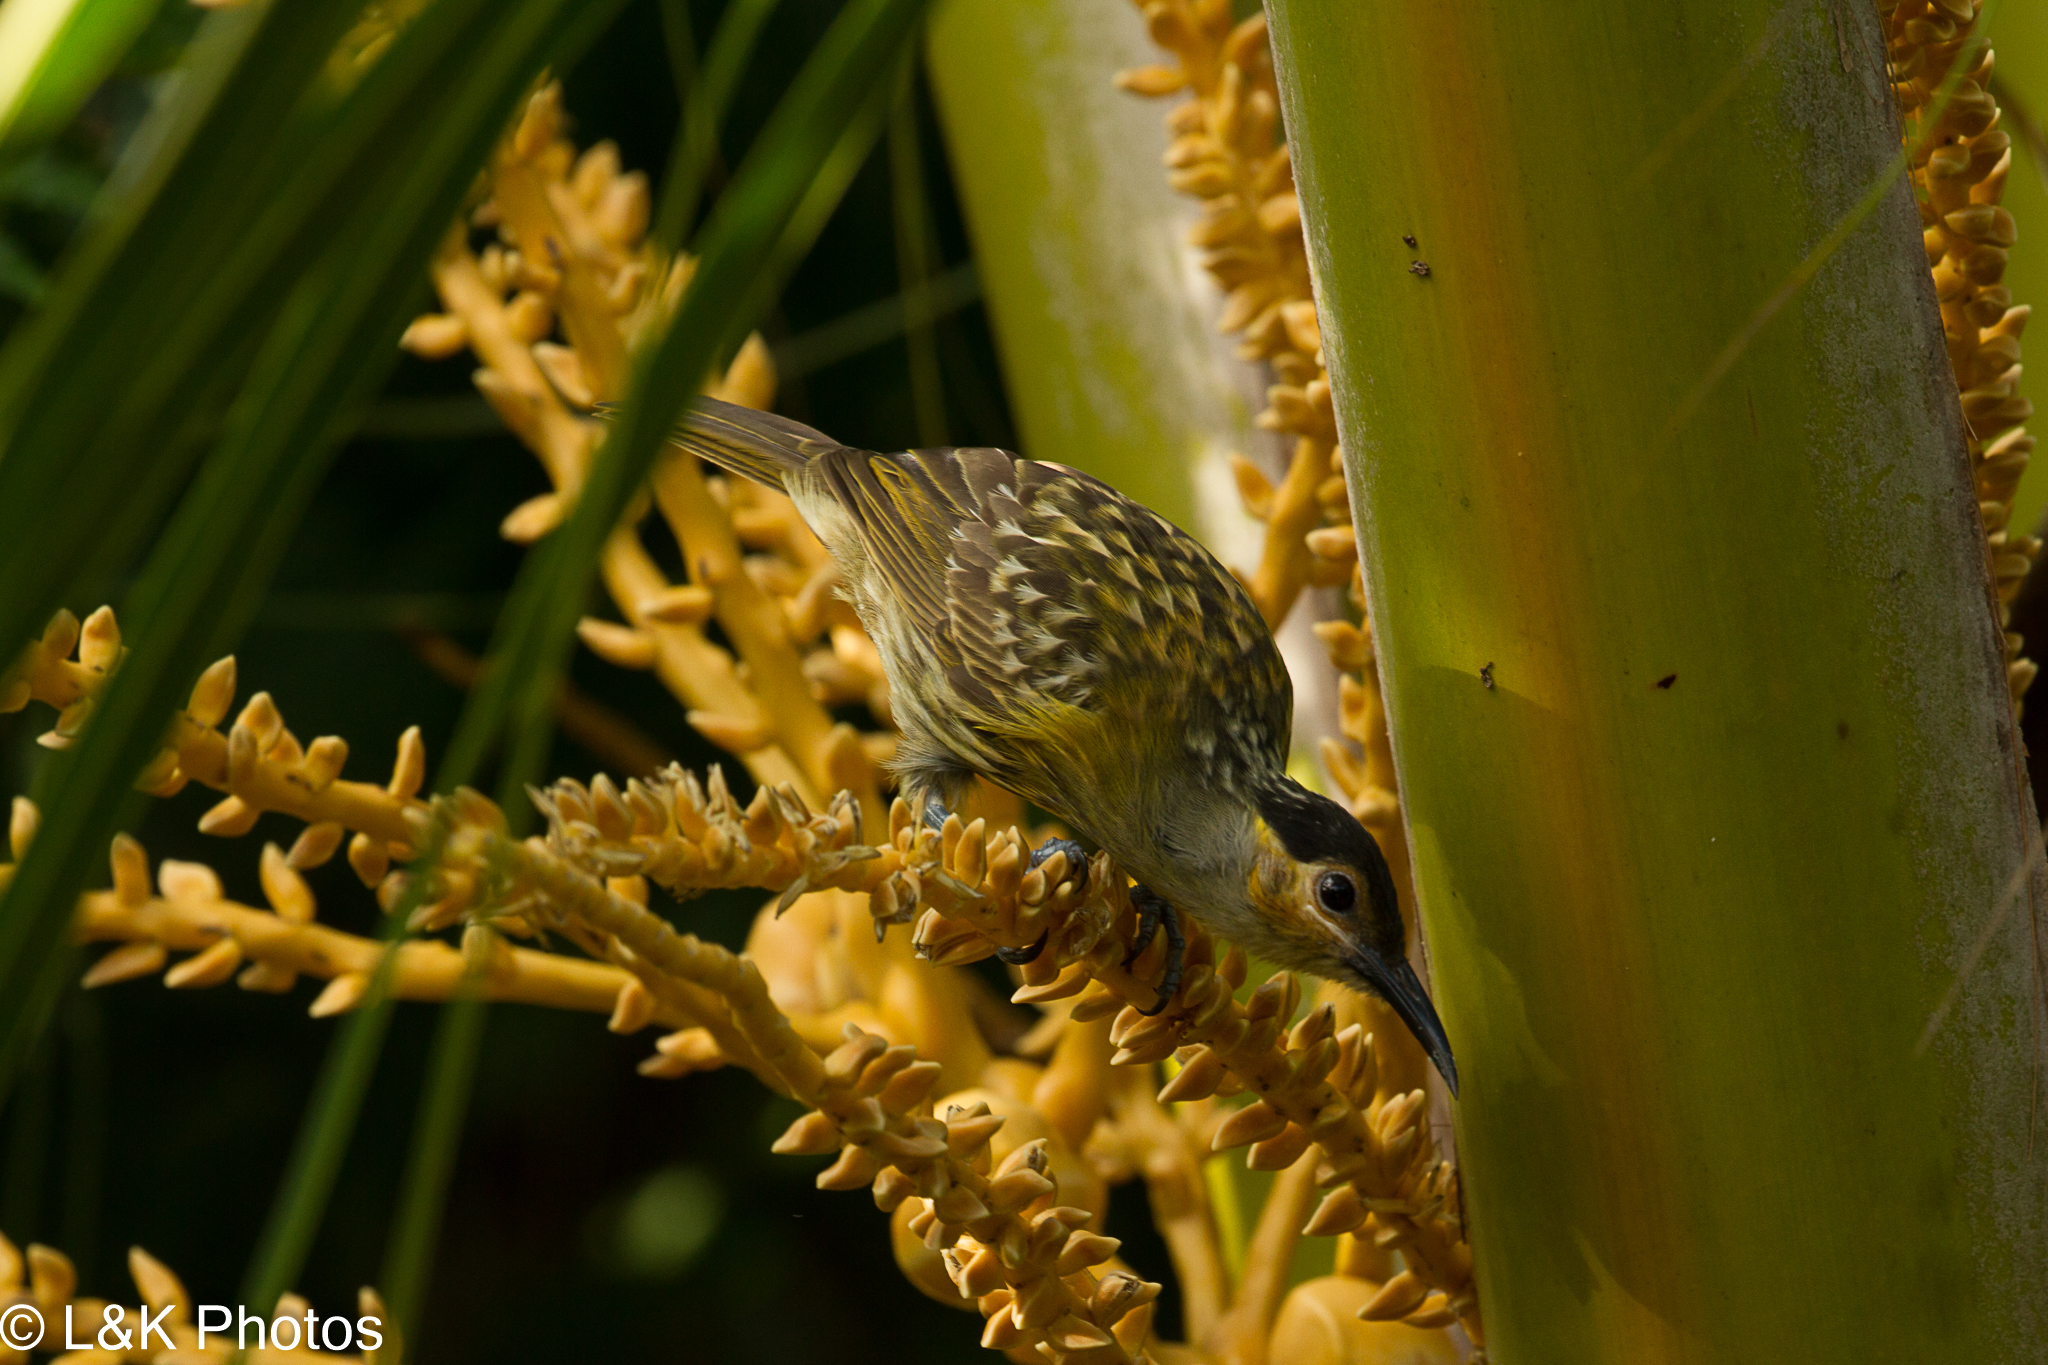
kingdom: Animalia
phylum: Chordata
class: Aves
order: Passeriformes
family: Meliphagidae
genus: Xanthotis
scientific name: Xanthotis macleayanus
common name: Macleay's honeyeater
